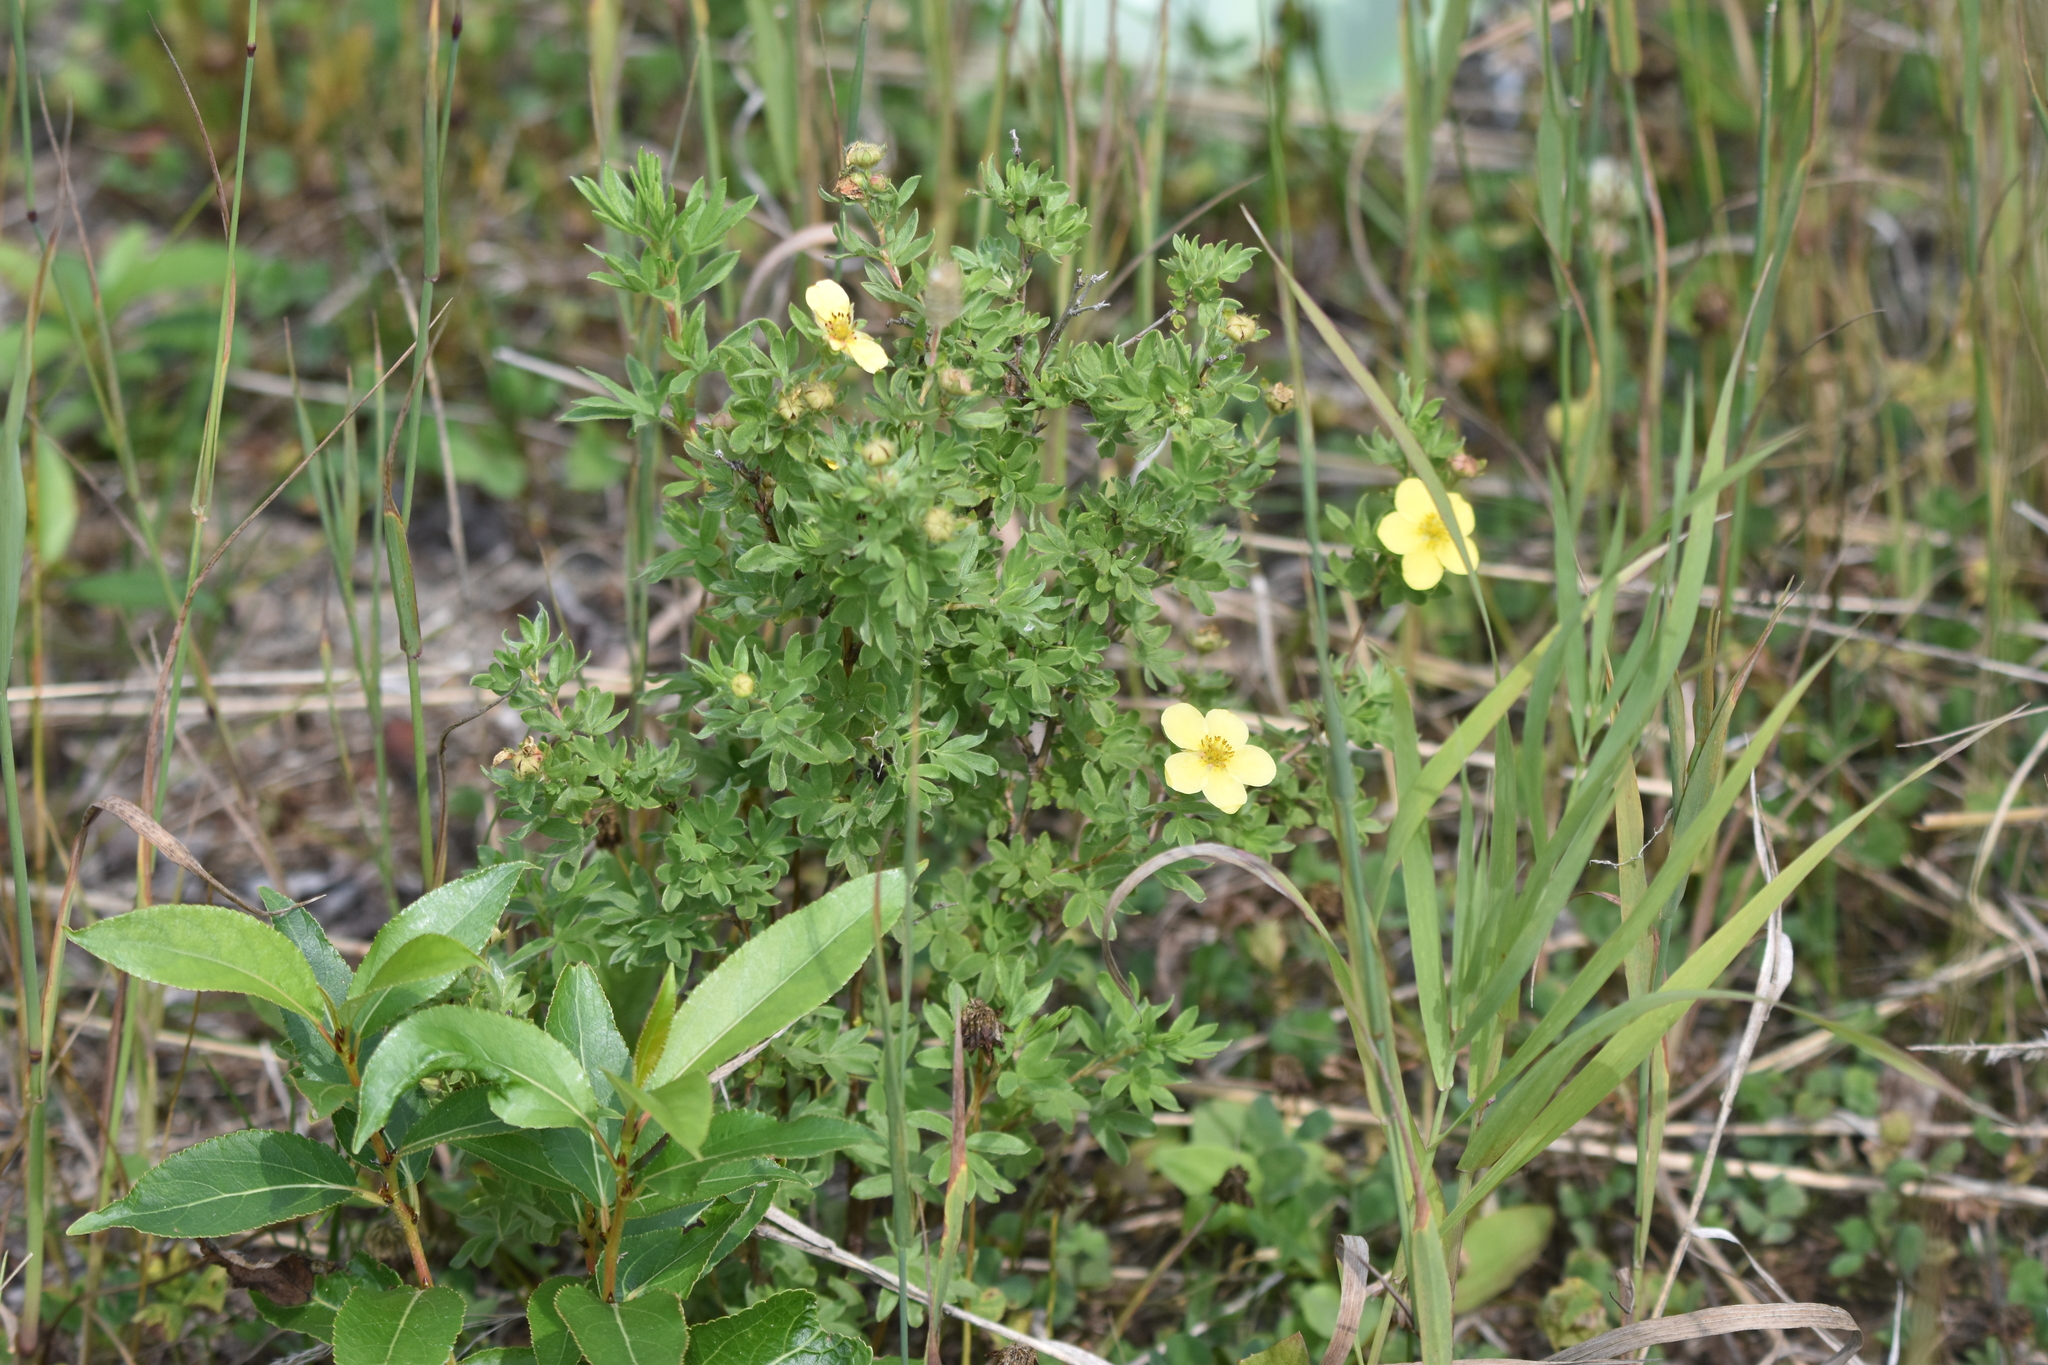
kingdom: Plantae
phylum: Tracheophyta
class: Magnoliopsida
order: Rosales
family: Rosaceae
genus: Dasiphora
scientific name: Dasiphora fruticosa
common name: Shrubby cinquefoil
